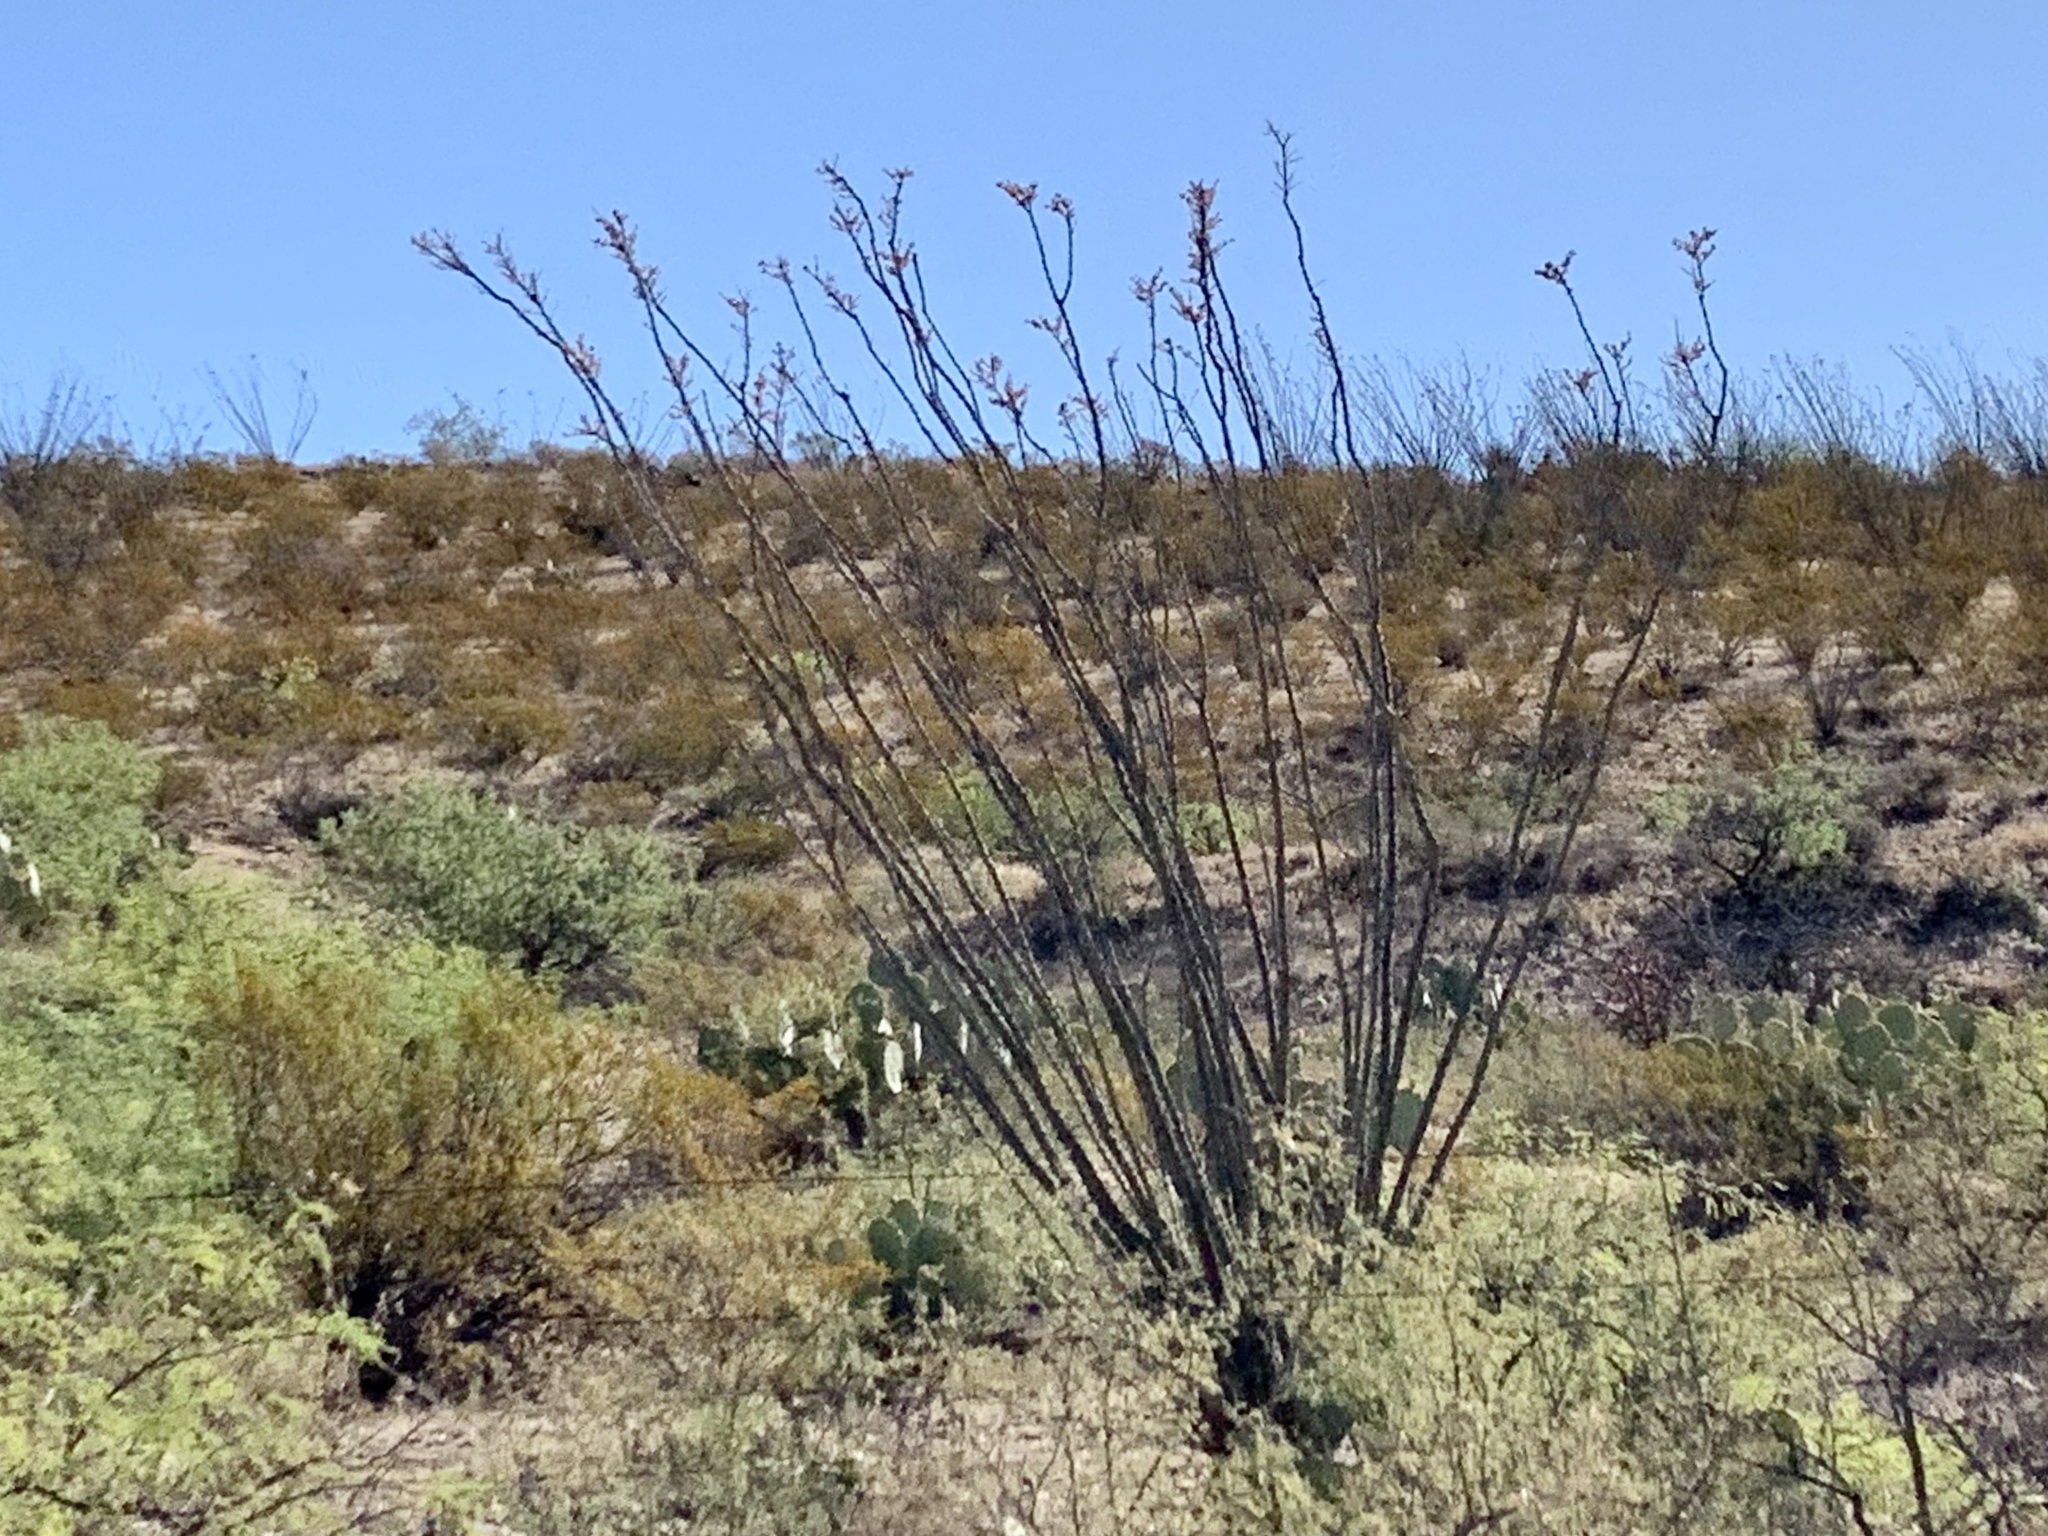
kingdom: Plantae
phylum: Tracheophyta
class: Magnoliopsida
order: Ericales
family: Fouquieriaceae
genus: Fouquieria
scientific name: Fouquieria splendens
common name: Vine-cactus
